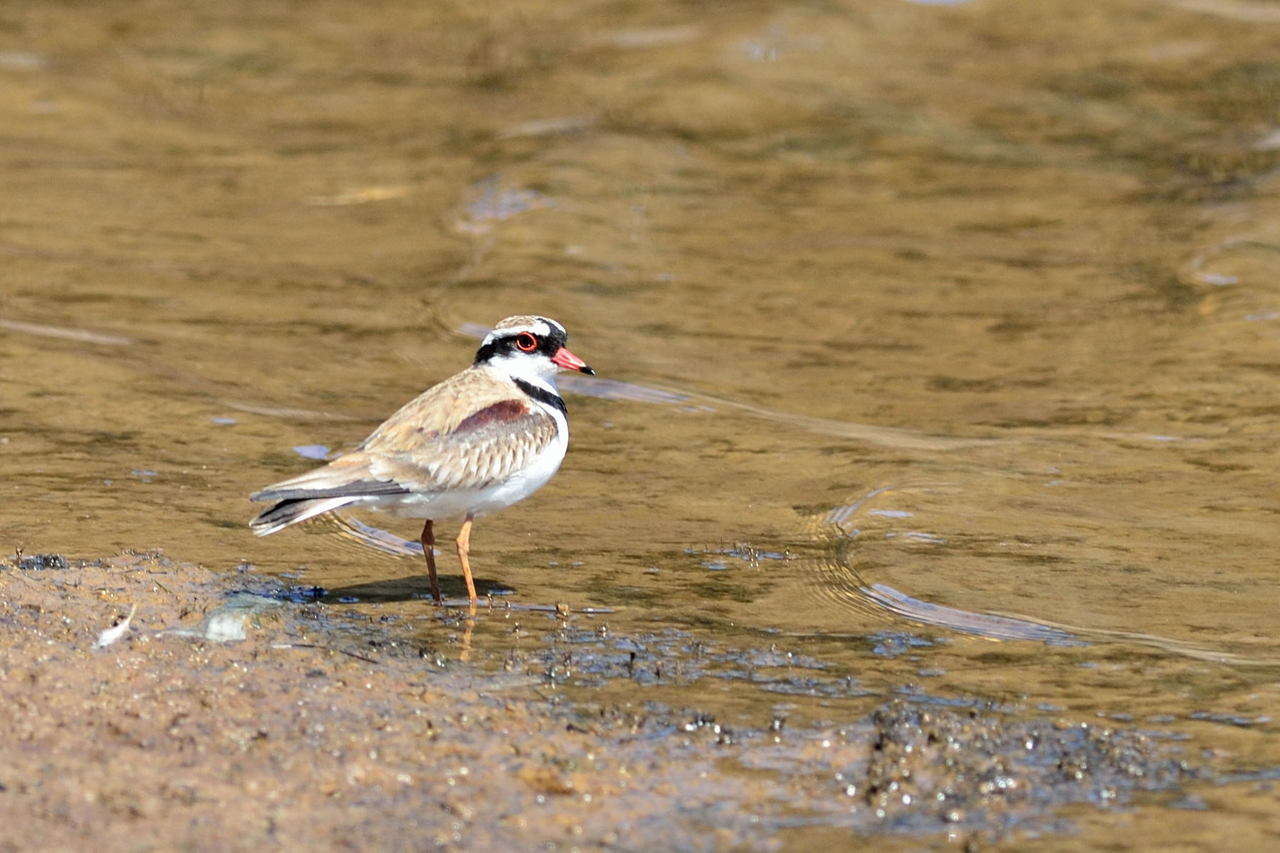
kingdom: Animalia
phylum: Chordata
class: Aves
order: Charadriiformes
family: Charadriidae
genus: Elseyornis
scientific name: Elseyornis melanops
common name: Black-fronted dotterel
